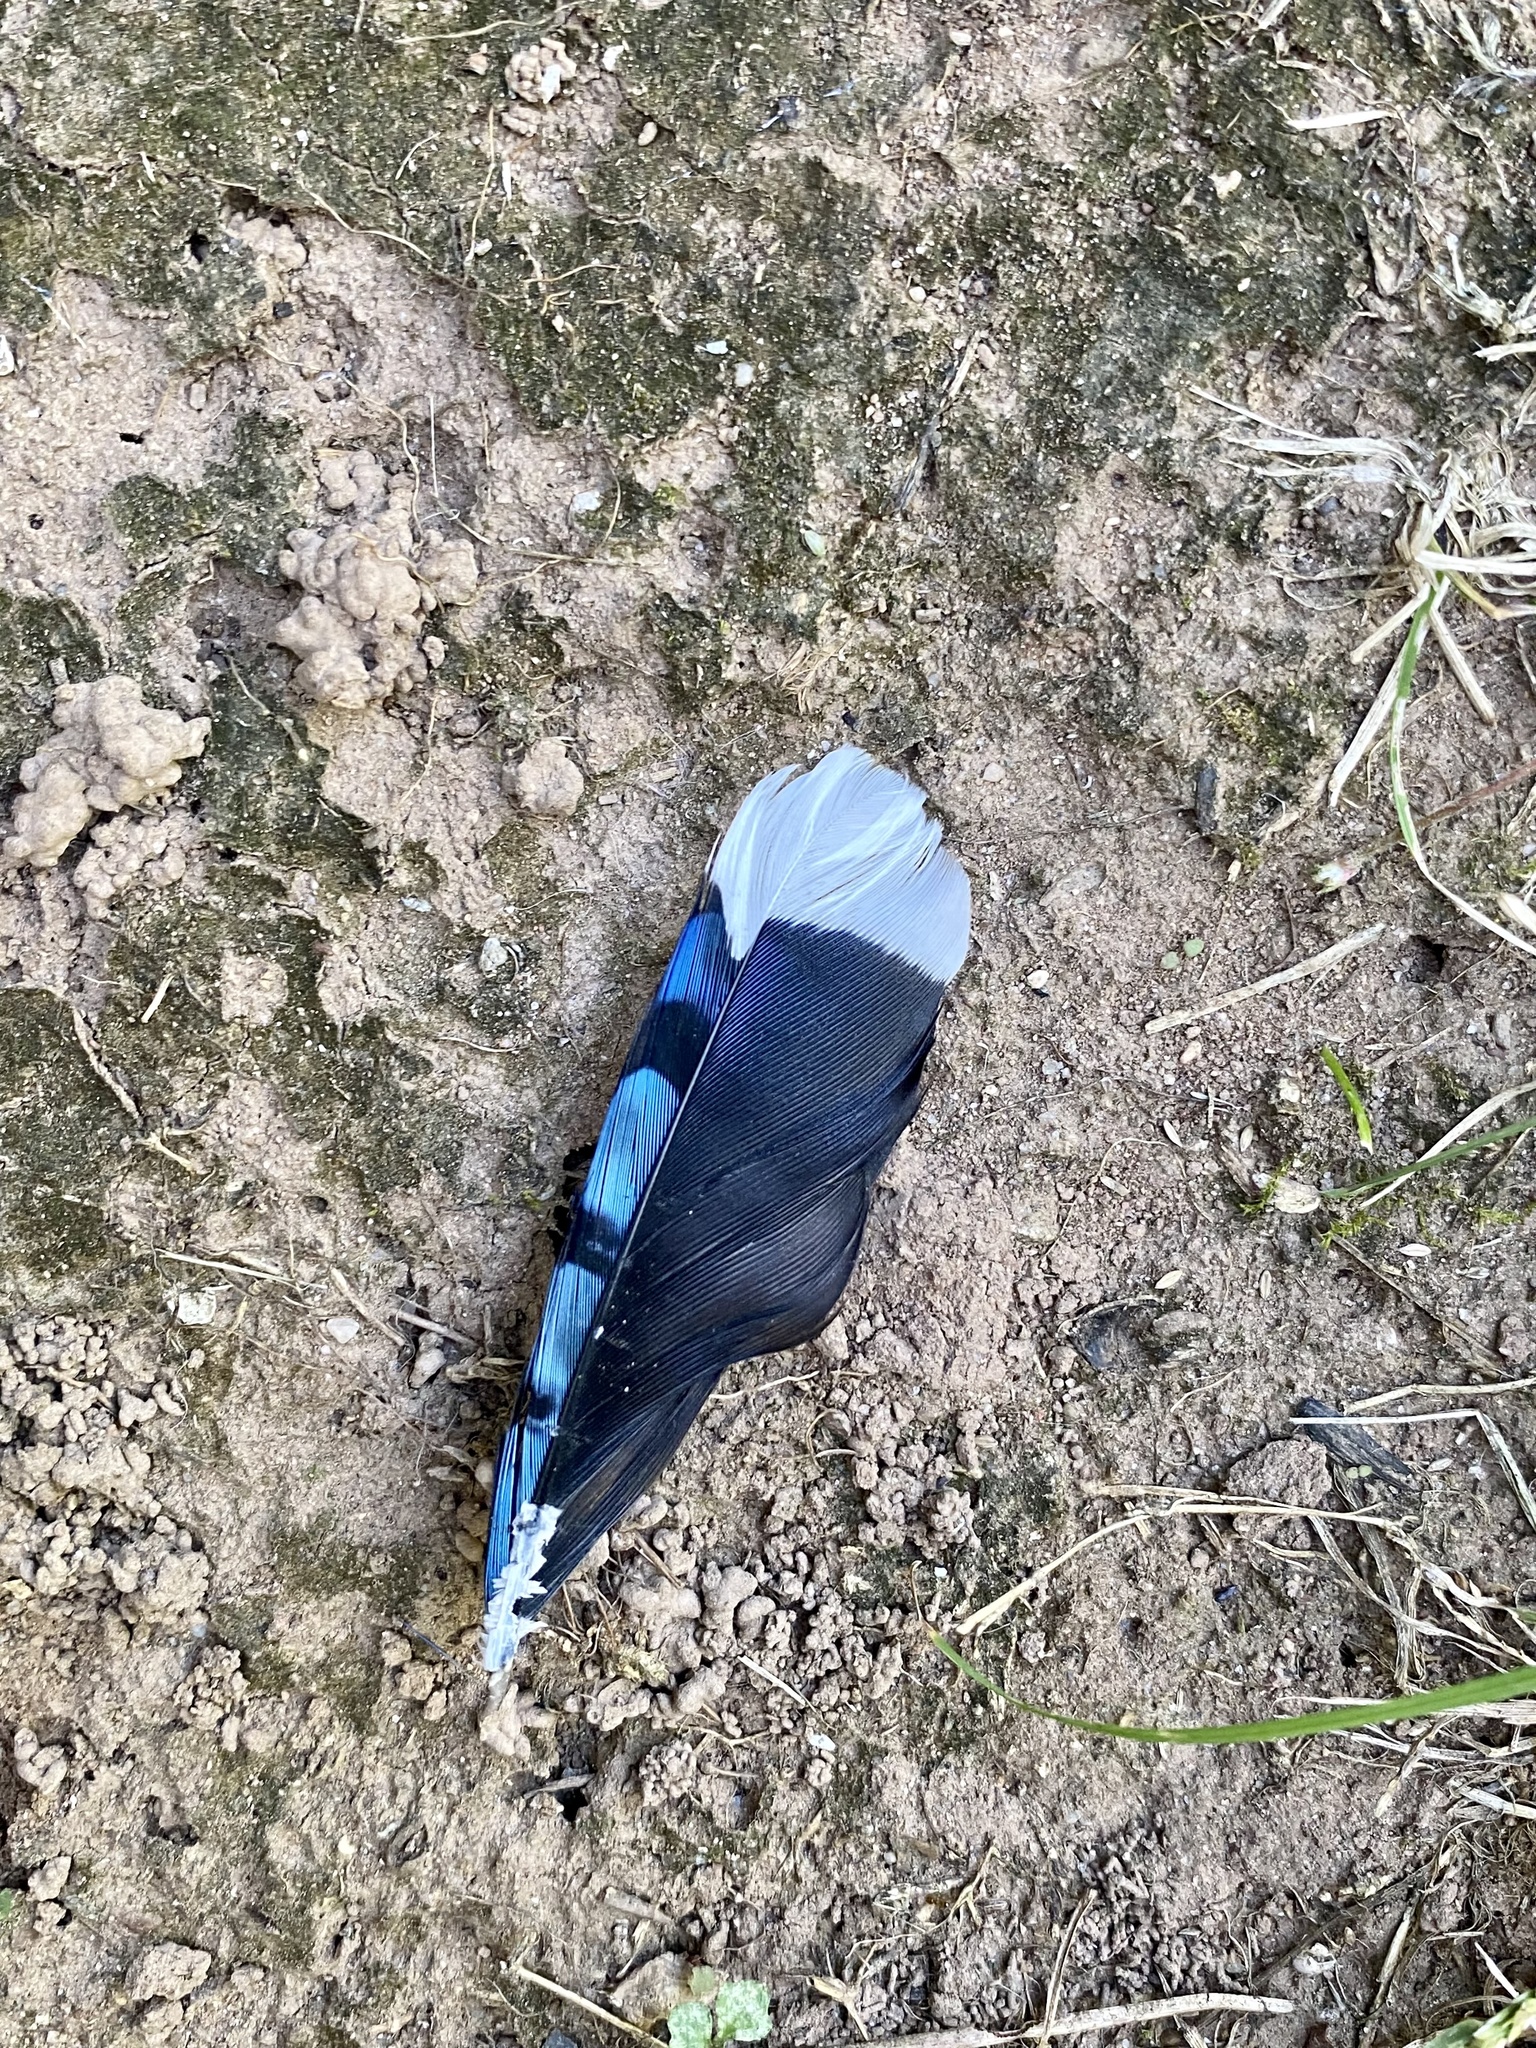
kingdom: Animalia
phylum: Chordata
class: Aves
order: Passeriformes
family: Corvidae
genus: Cyanocitta
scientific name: Cyanocitta cristata
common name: Blue jay
